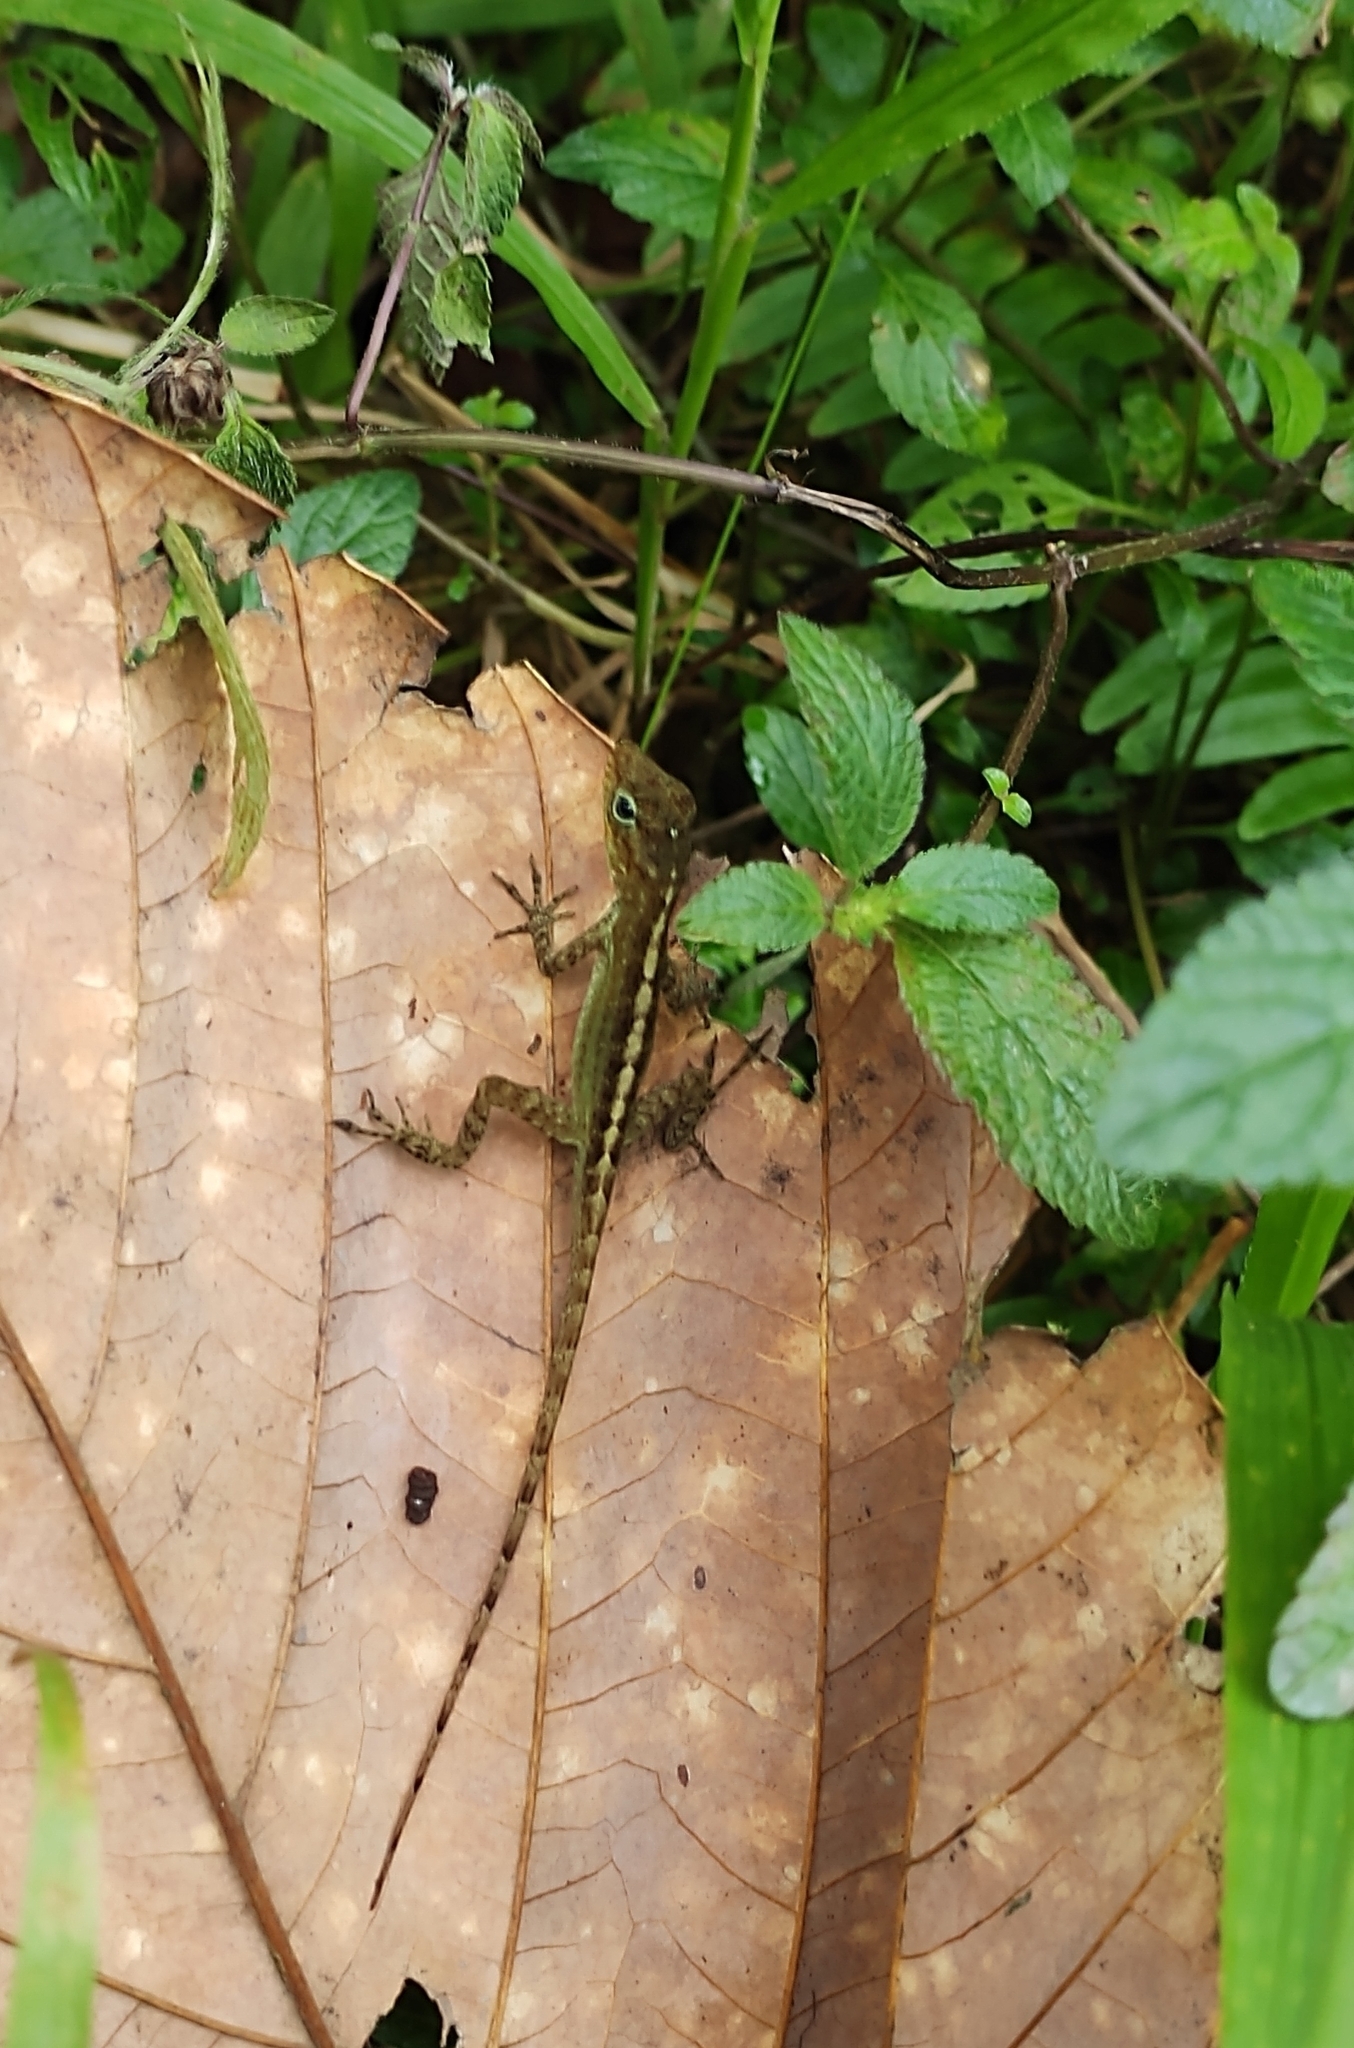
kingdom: Animalia
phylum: Chordata
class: Squamata
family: Dactyloidae
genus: Anolis
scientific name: Anolis oculatus
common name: Dominica anole
